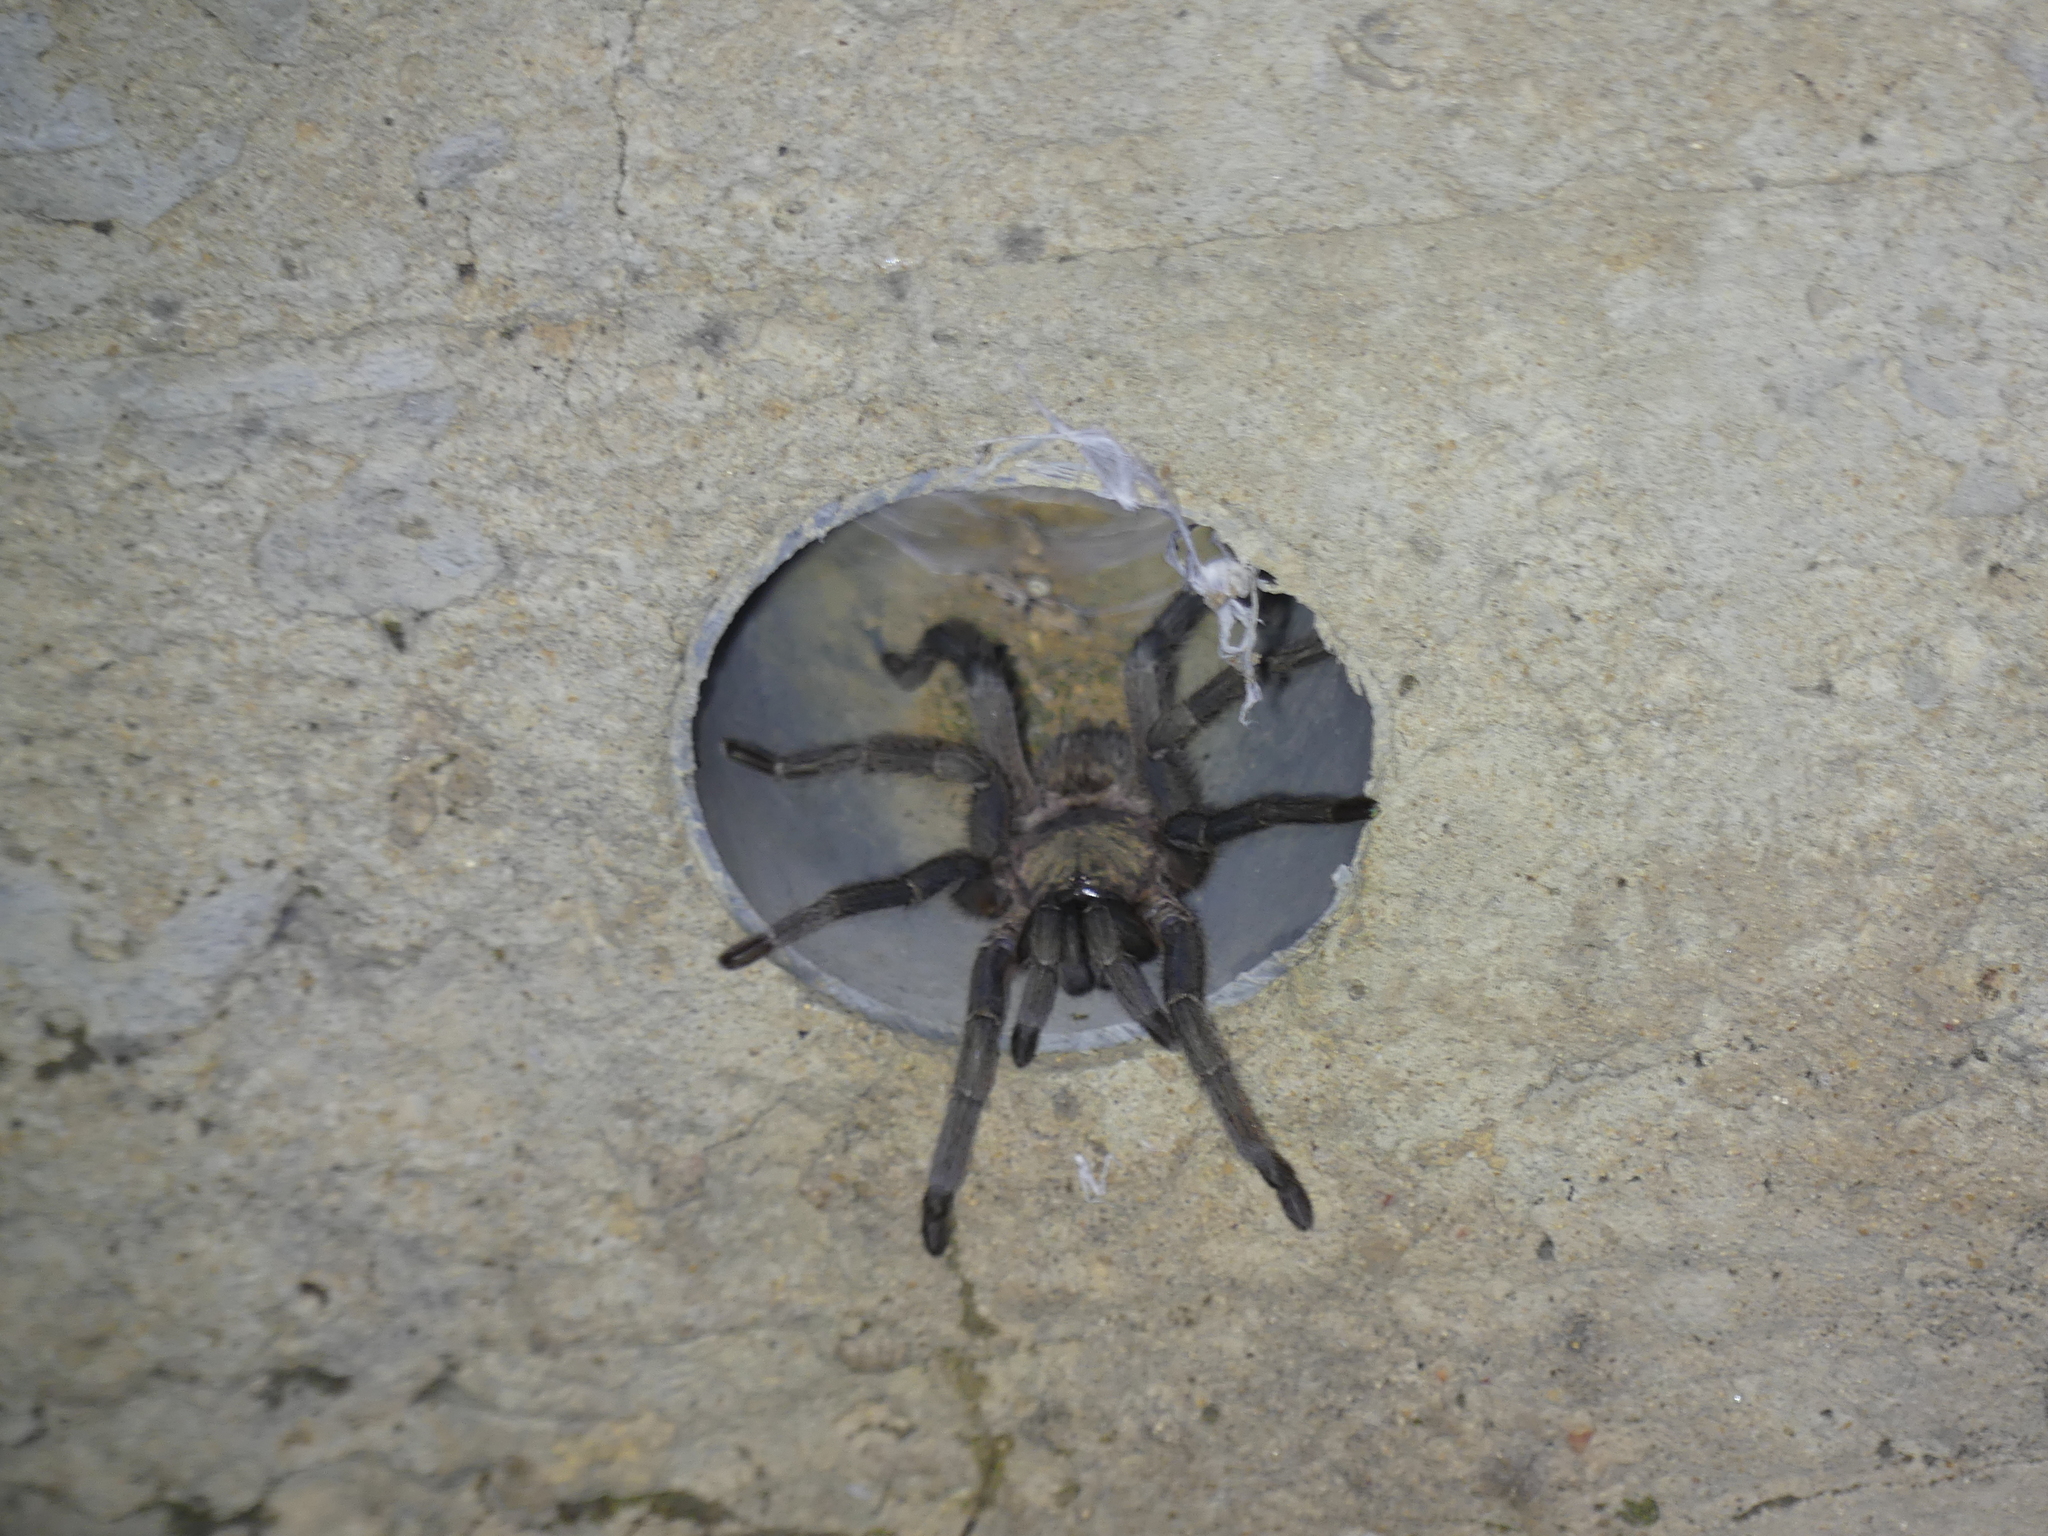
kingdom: Animalia
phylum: Arthropoda
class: Arachnida
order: Araneae
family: Theraphosidae
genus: Chaetopelma
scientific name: Chaetopelma olivaceum
